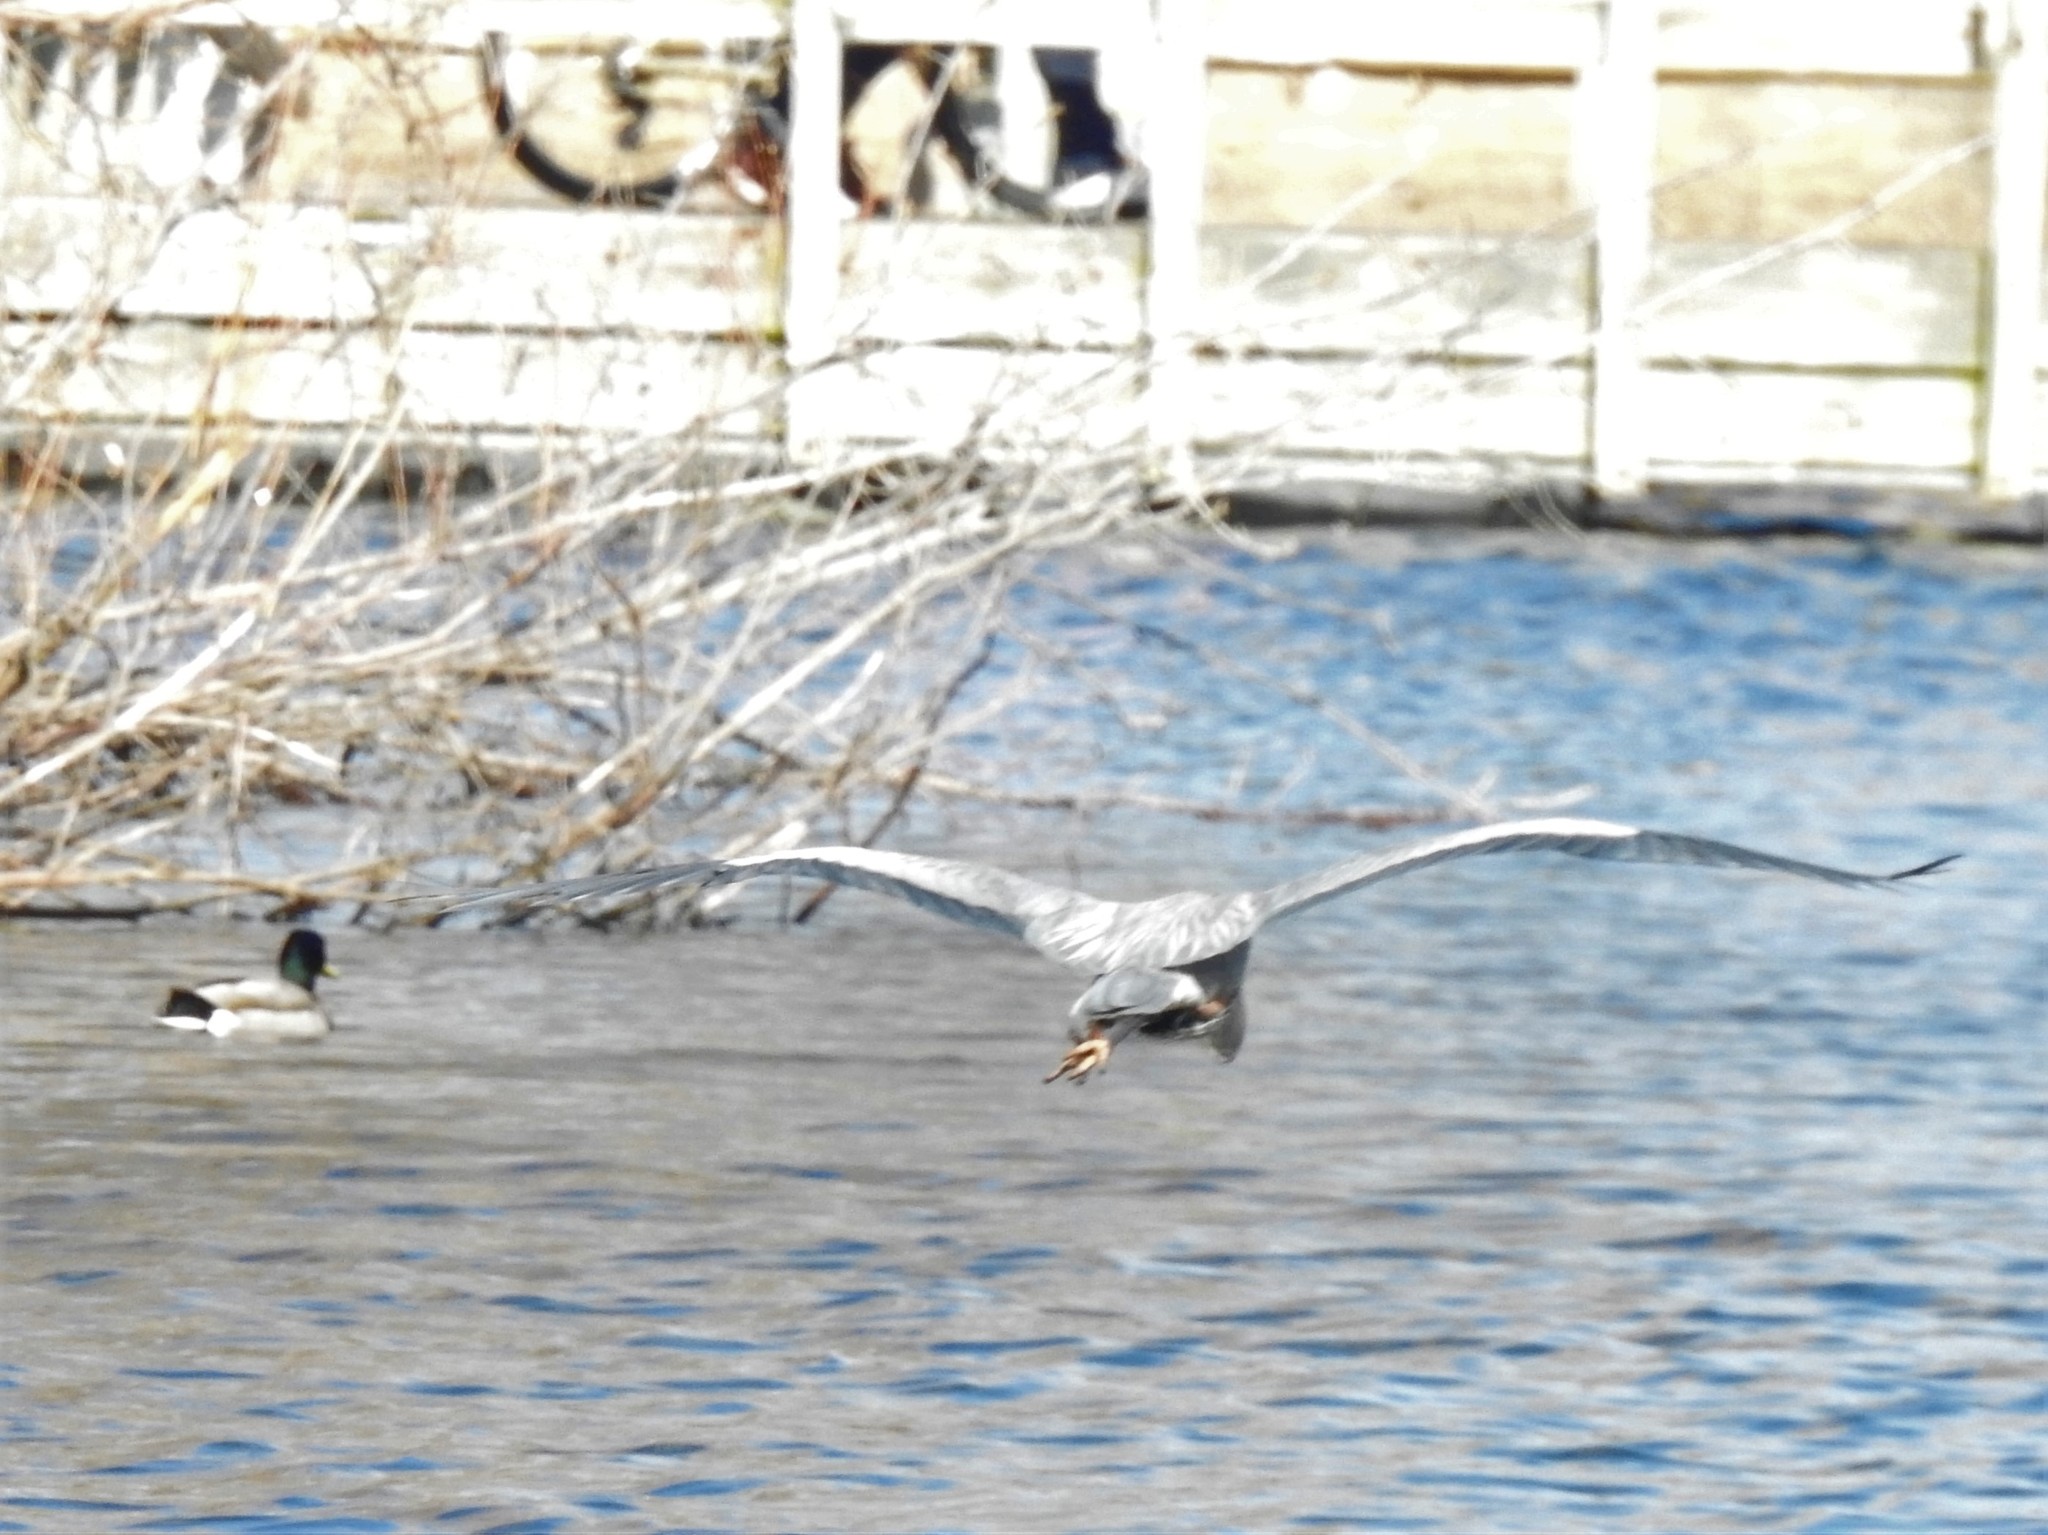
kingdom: Animalia
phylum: Chordata
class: Aves
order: Pelecaniformes
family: Ardeidae
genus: Ardea
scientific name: Ardea herodias
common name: Great blue heron
